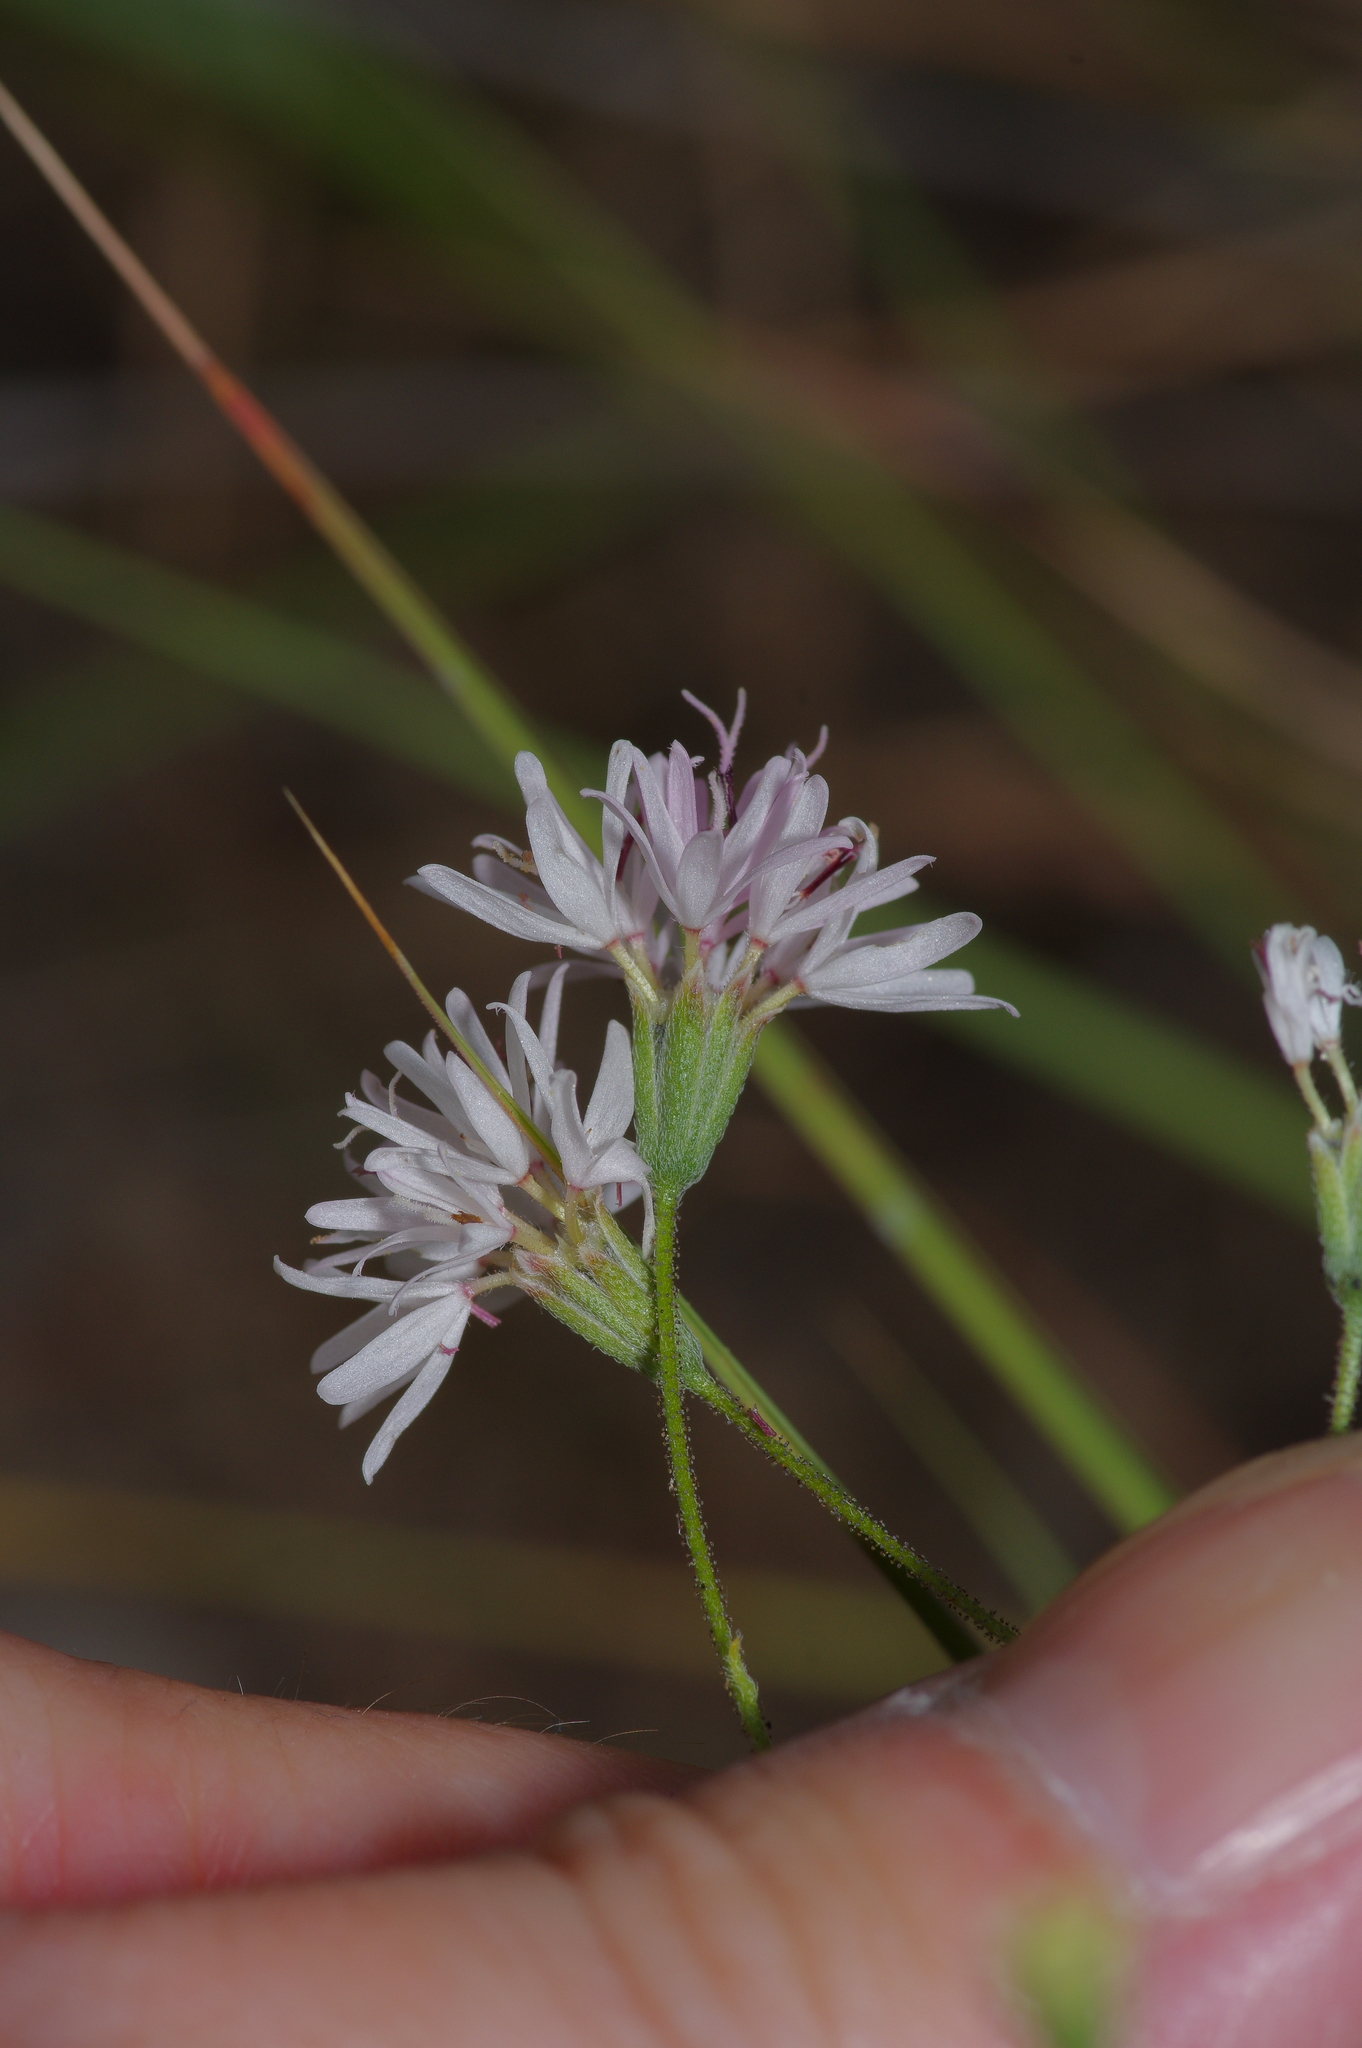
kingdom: Plantae
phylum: Tracheophyta
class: Magnoliopsida
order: Asterales
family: Asteraceae
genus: Palafoxia
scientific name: Palafoxia callosa
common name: Small palafox
